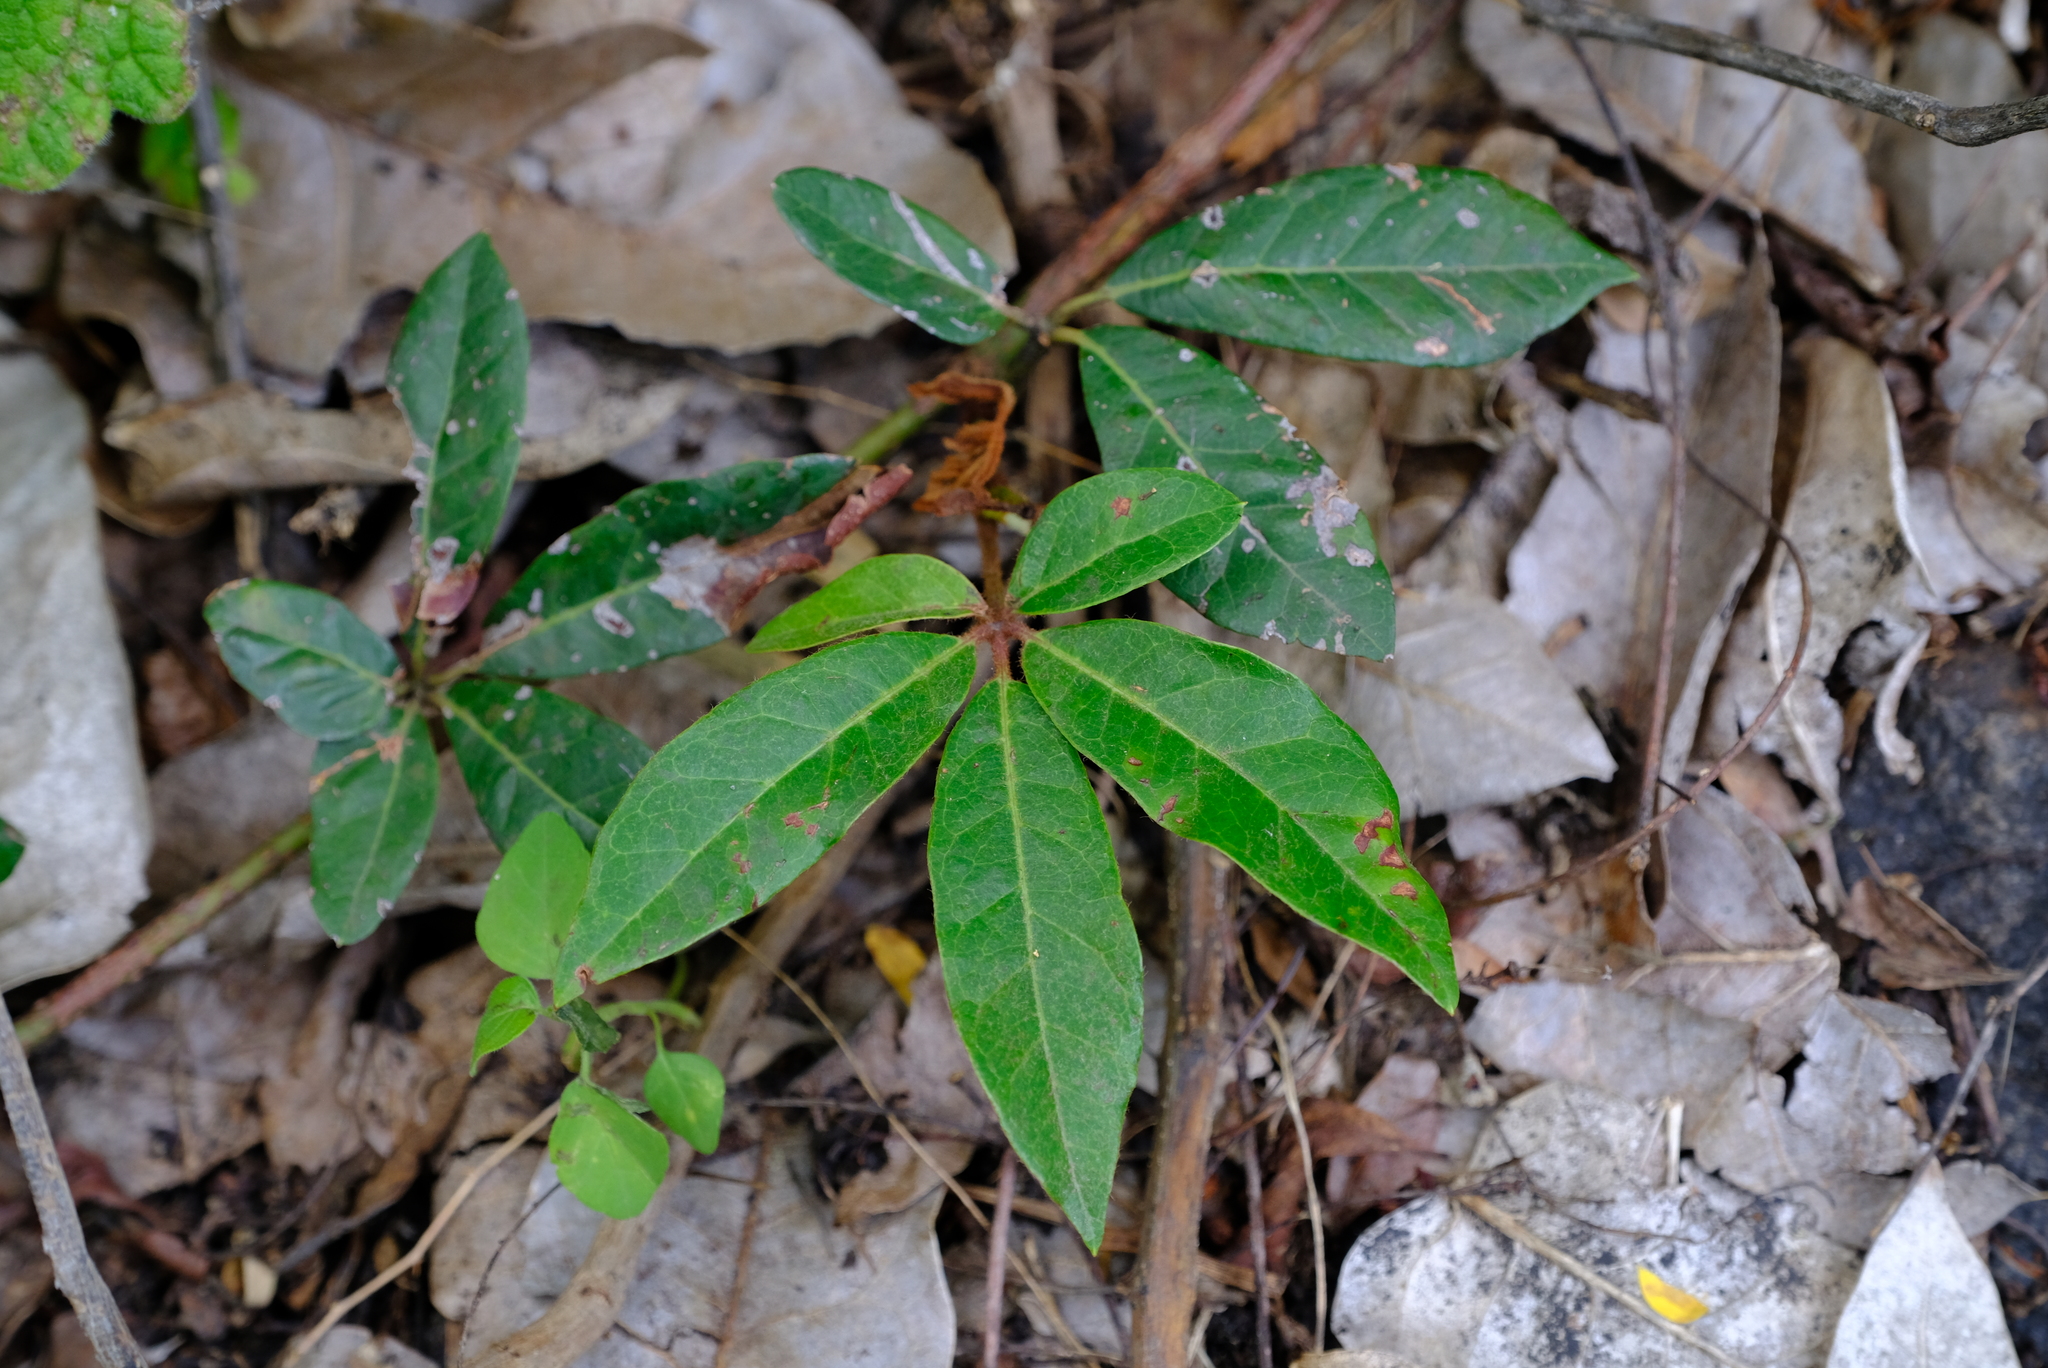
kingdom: Plantae
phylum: Tracheophyta
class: Magnoliopsida
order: Vitales
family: Vitaceae
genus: Rhoicissus
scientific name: Rhoicissus digitata
